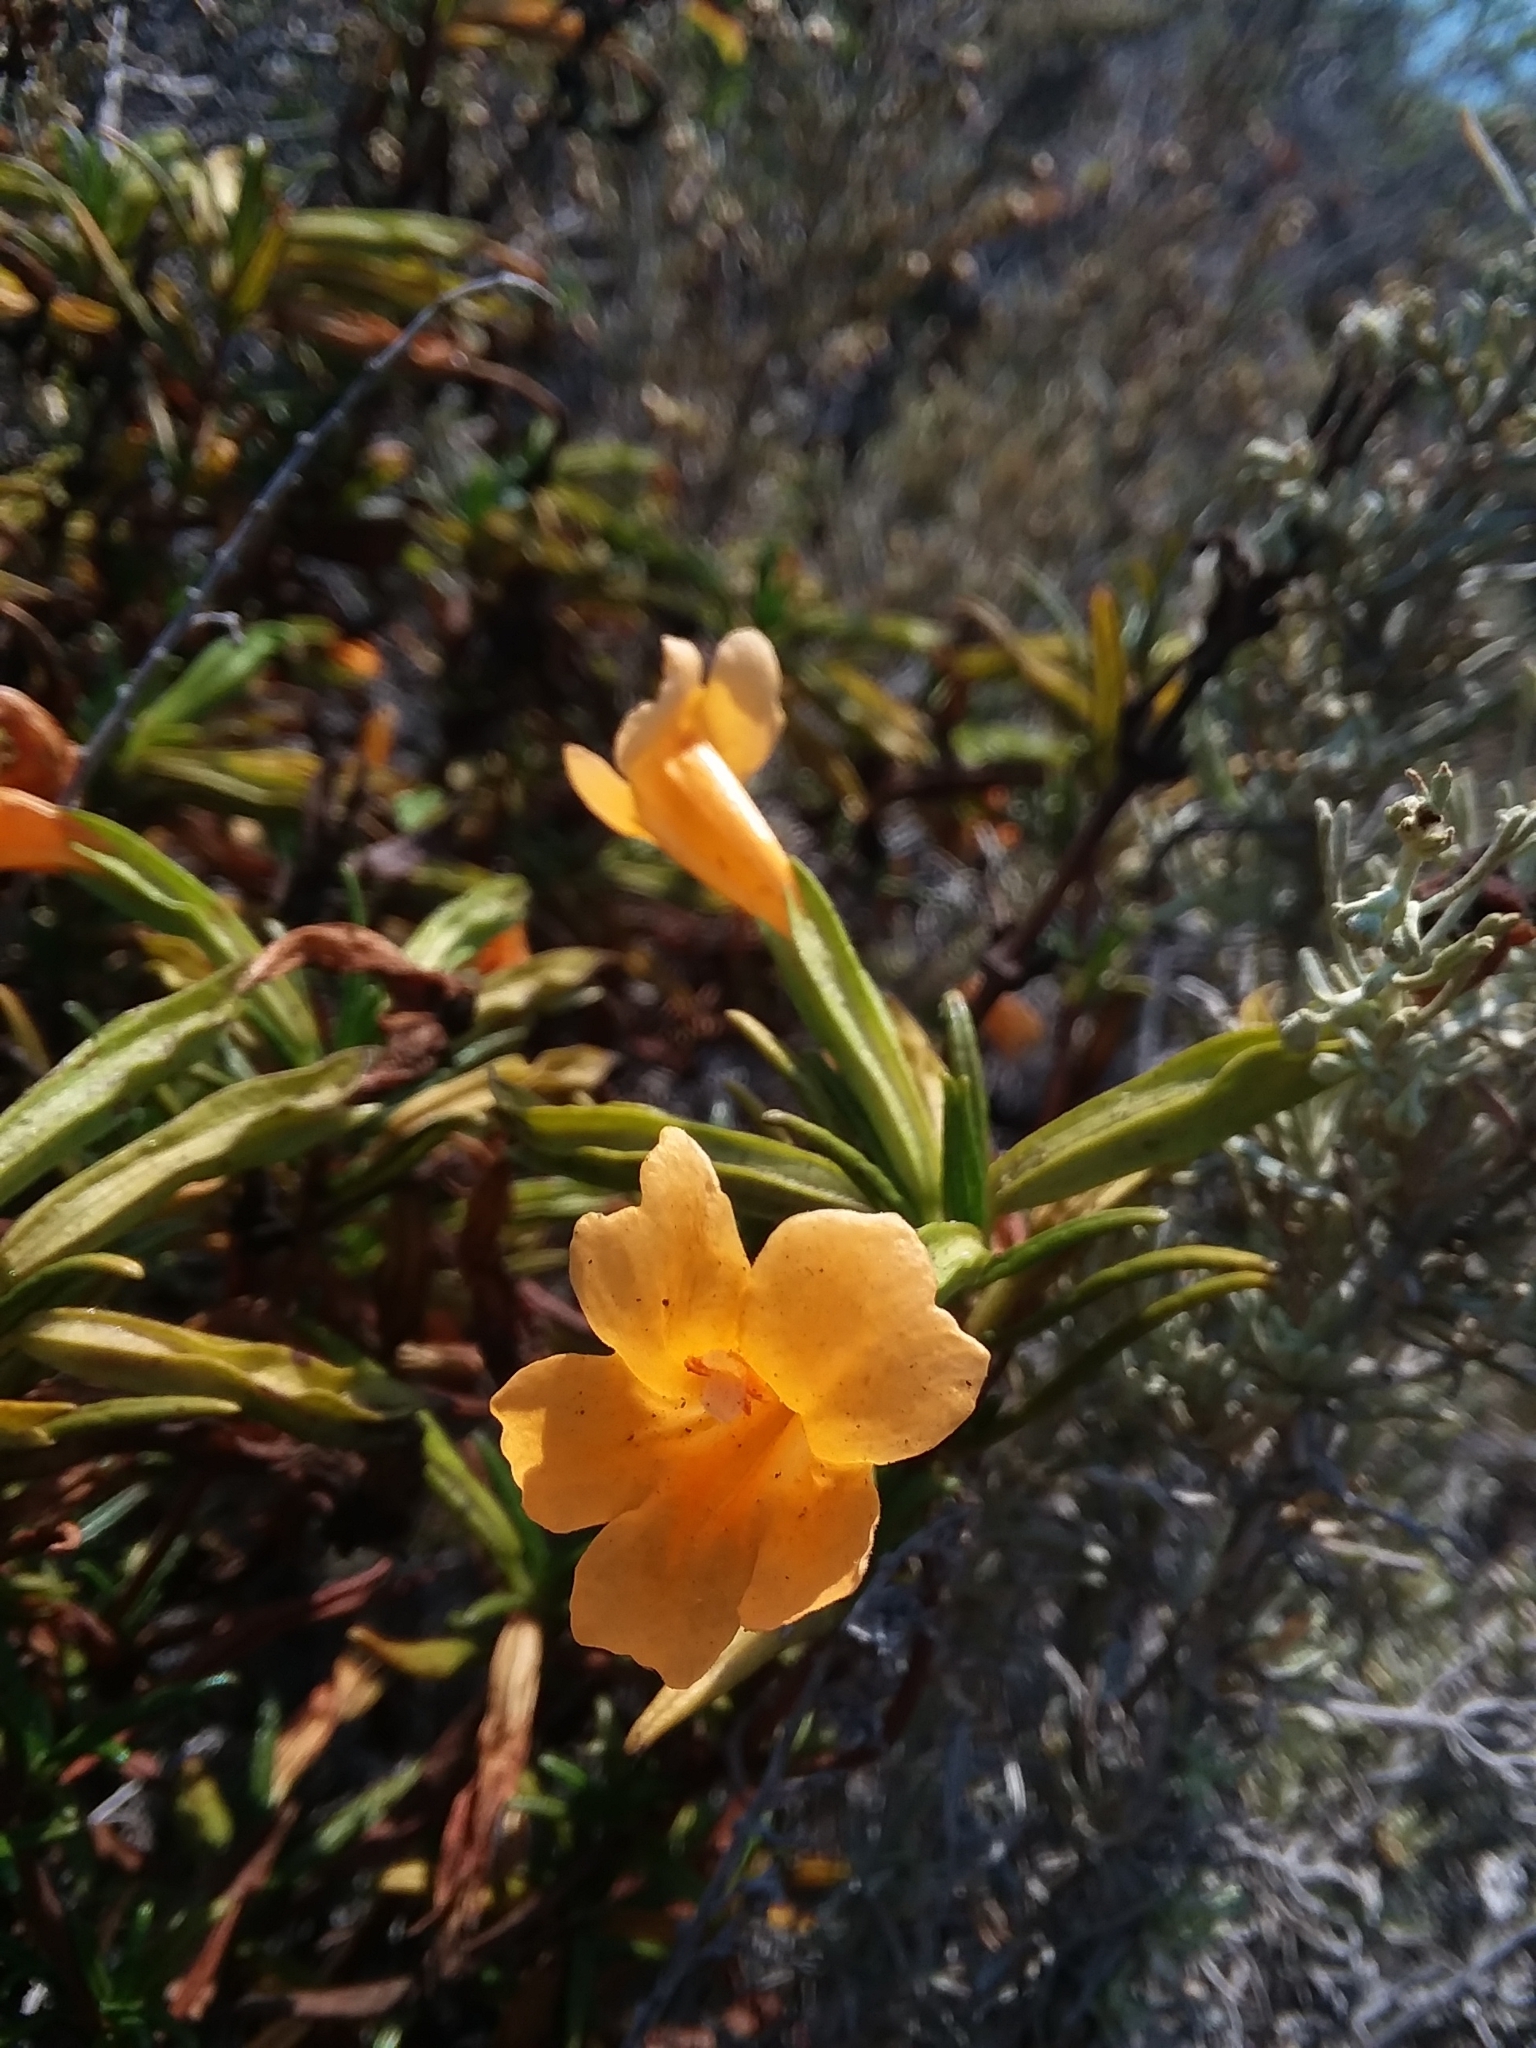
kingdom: Plantae
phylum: Tracheophyta
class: Magnoliopsida
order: Lamiales
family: Phrymaceae
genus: Diplacus
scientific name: Diplacus aurantiacus
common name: Bush monkey-flower
